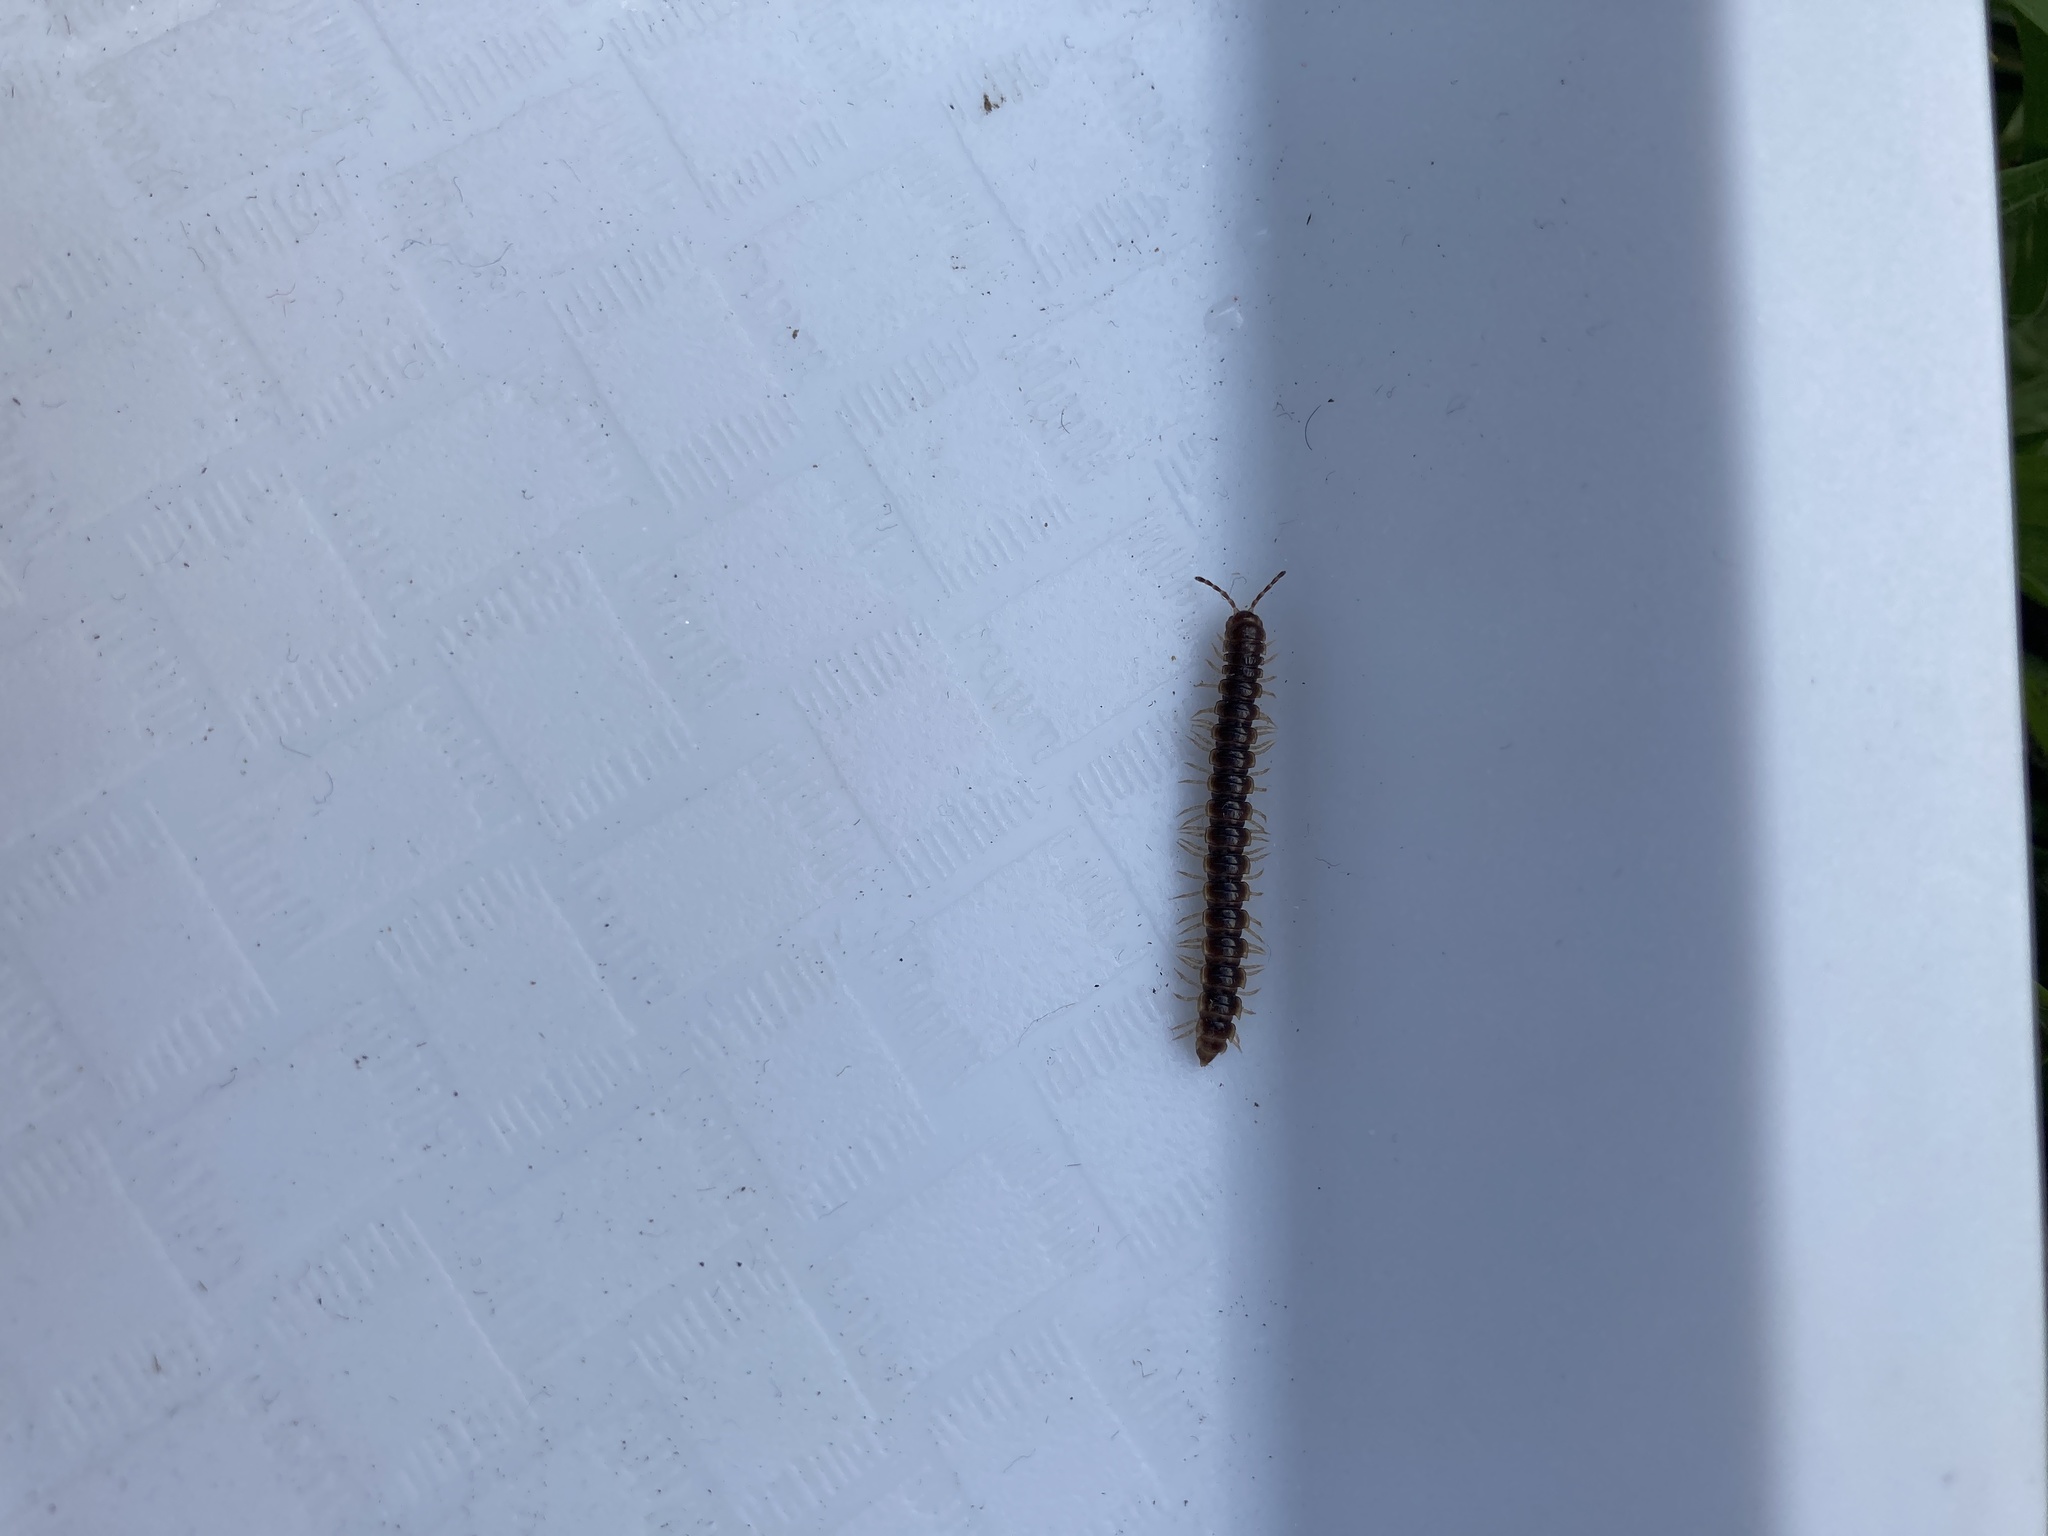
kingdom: Animalia
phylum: Arthropoda
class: Diplopoda
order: Polydesmida
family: Paradoxosomatidae
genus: Oxidus
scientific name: Oxidus gracilis
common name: Greenhouse millipede
